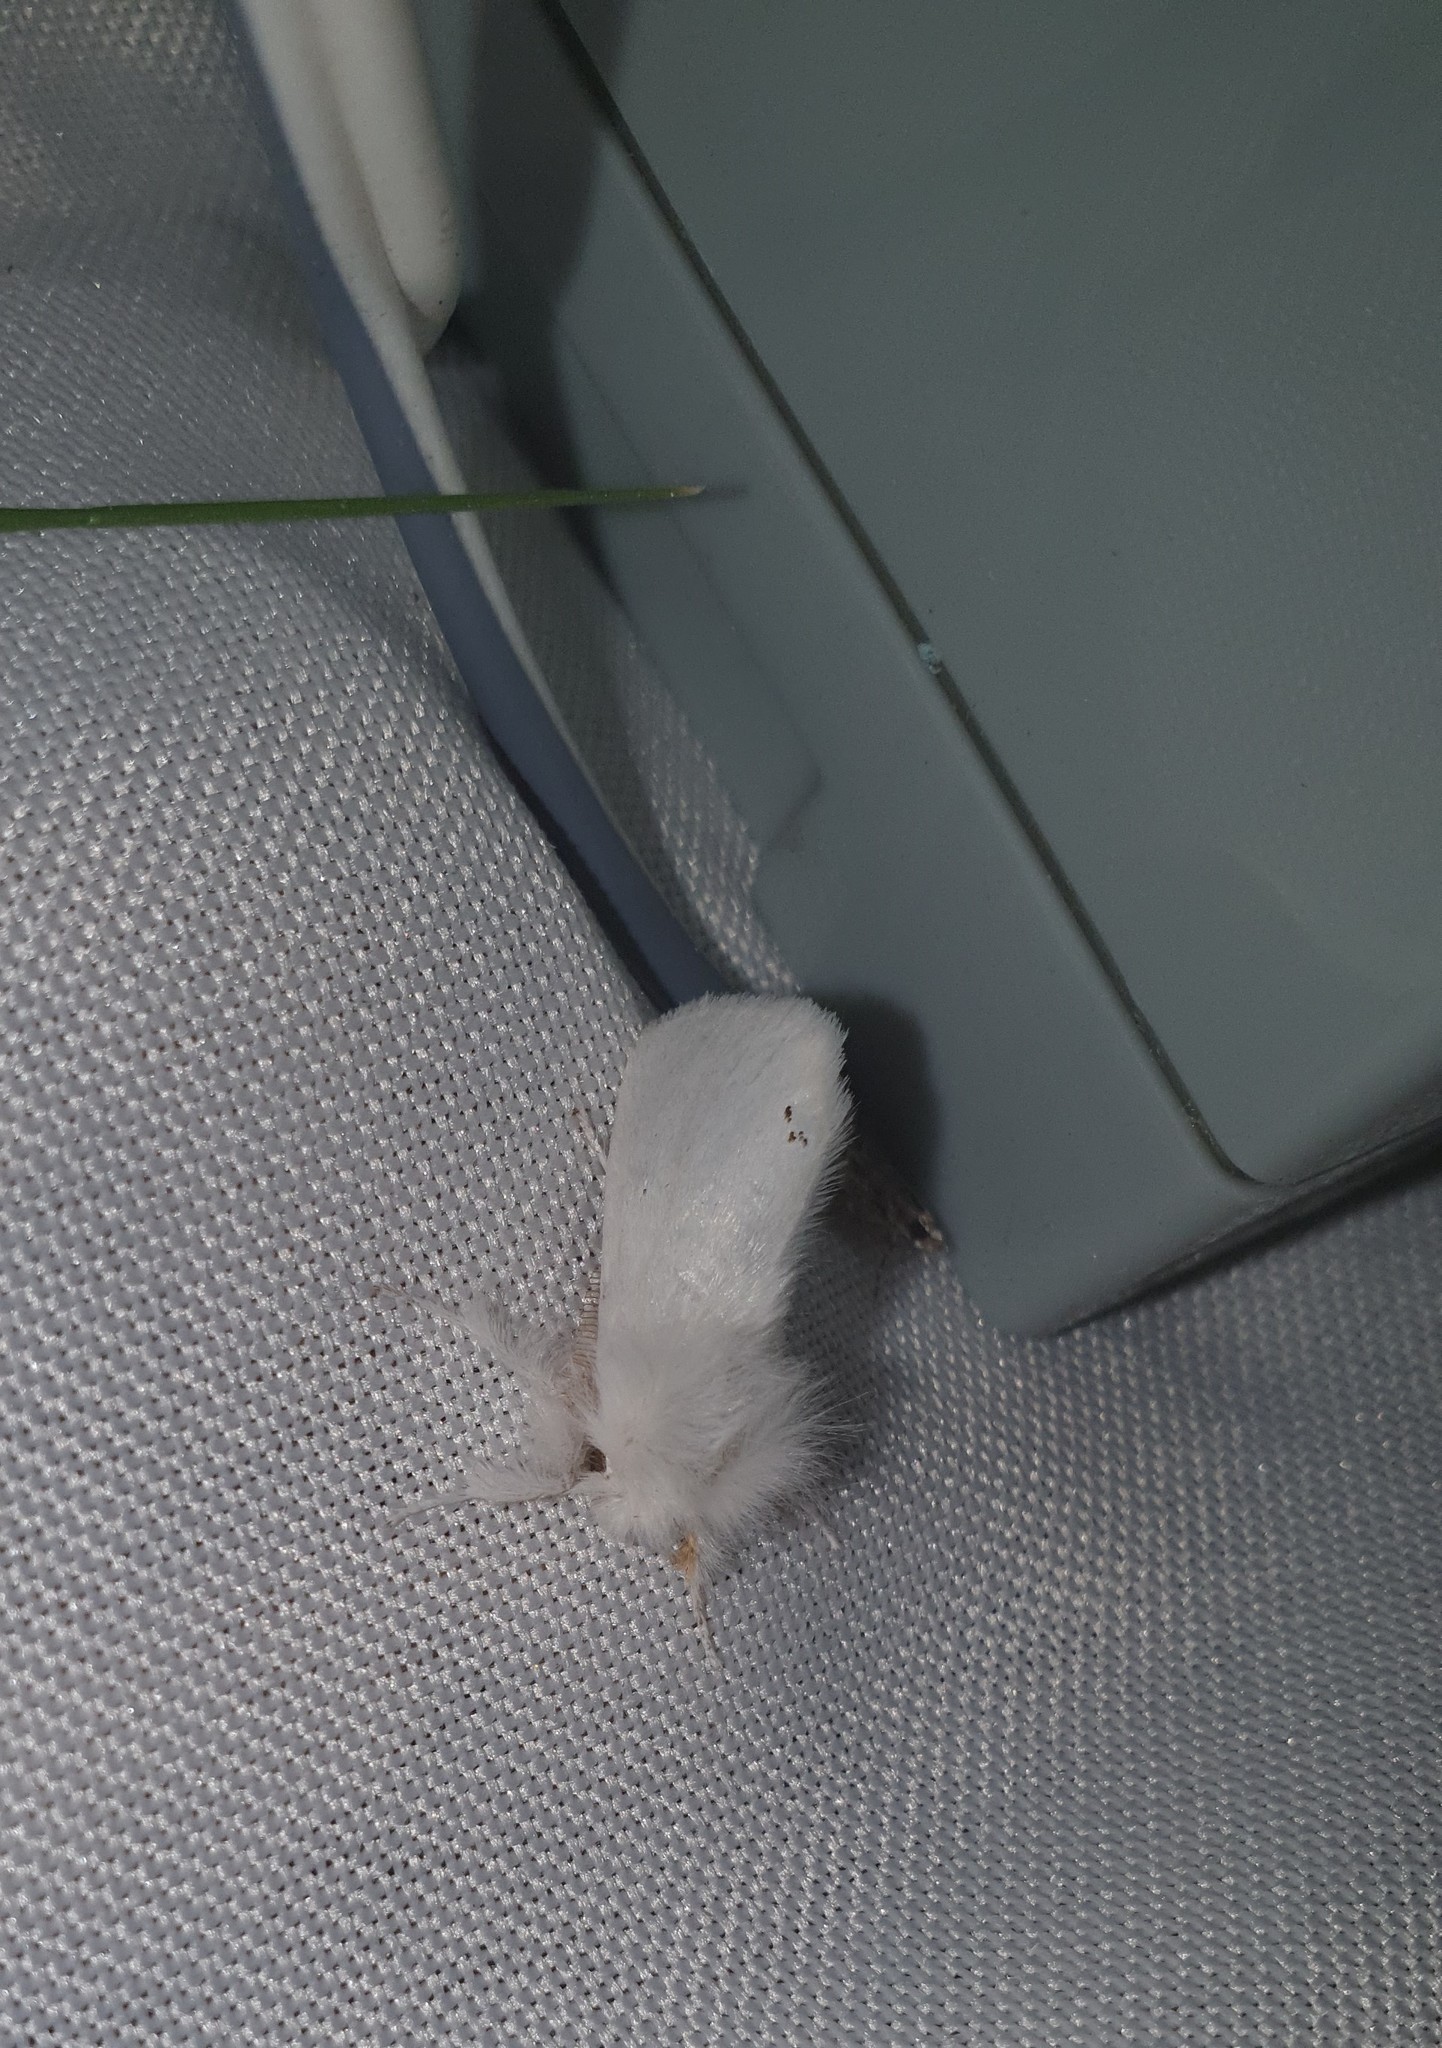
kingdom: Animalia
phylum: Arthropoda
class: Insecta
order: Lepidoptera
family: Erebidae
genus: Euproctis
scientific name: Euproctis chrysorrhoea
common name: Brown-tail
